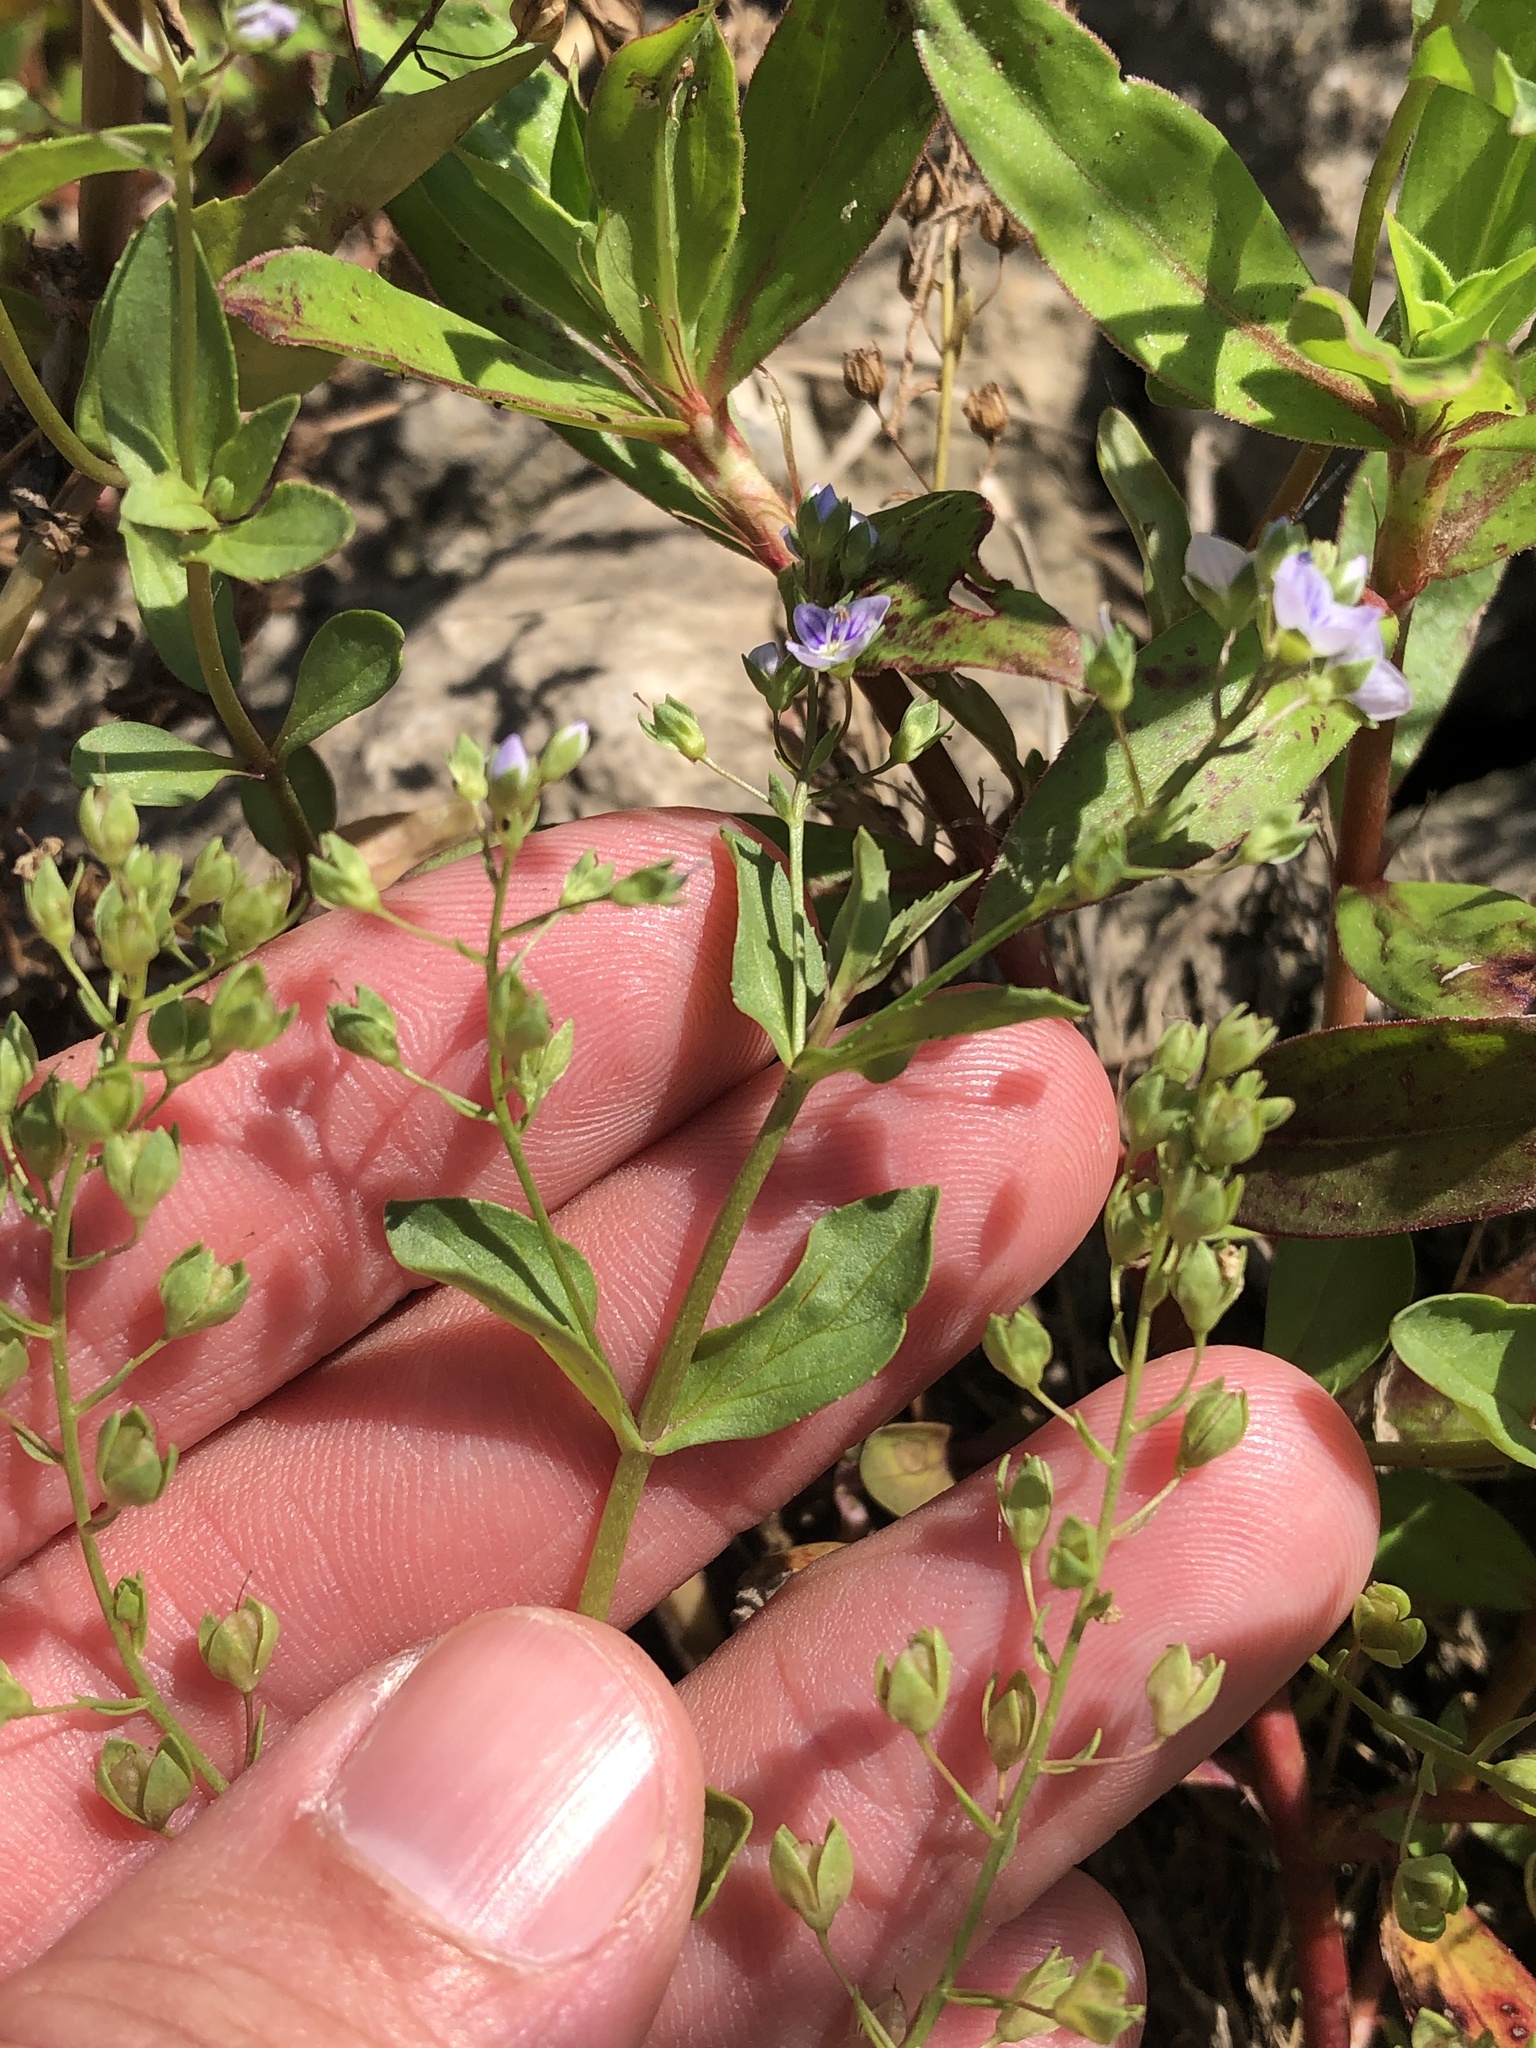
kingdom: Plantae
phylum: Tracheophyta
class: Magnoliopsida
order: Lamiales
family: Plantaginaceae
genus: Veronica
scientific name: Veronica anagallis-aquatica
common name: Water speedwell
